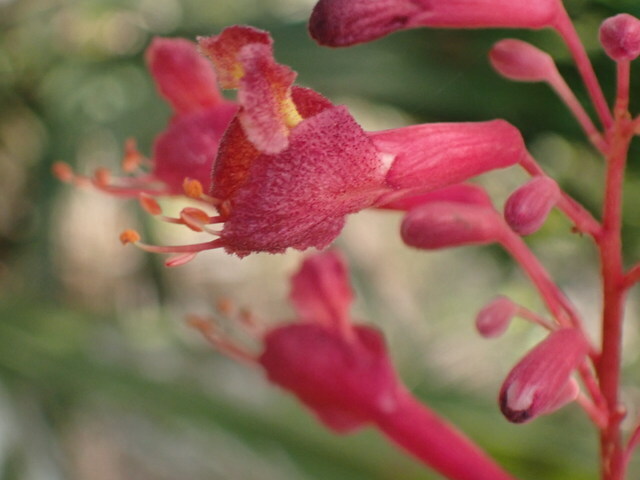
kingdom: Plantae
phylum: Tracheophyta
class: Magnoliopsida
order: Sapindales
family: Sapindaceae
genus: Aesculus
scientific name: Aesculus pavia
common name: Red buckeye
